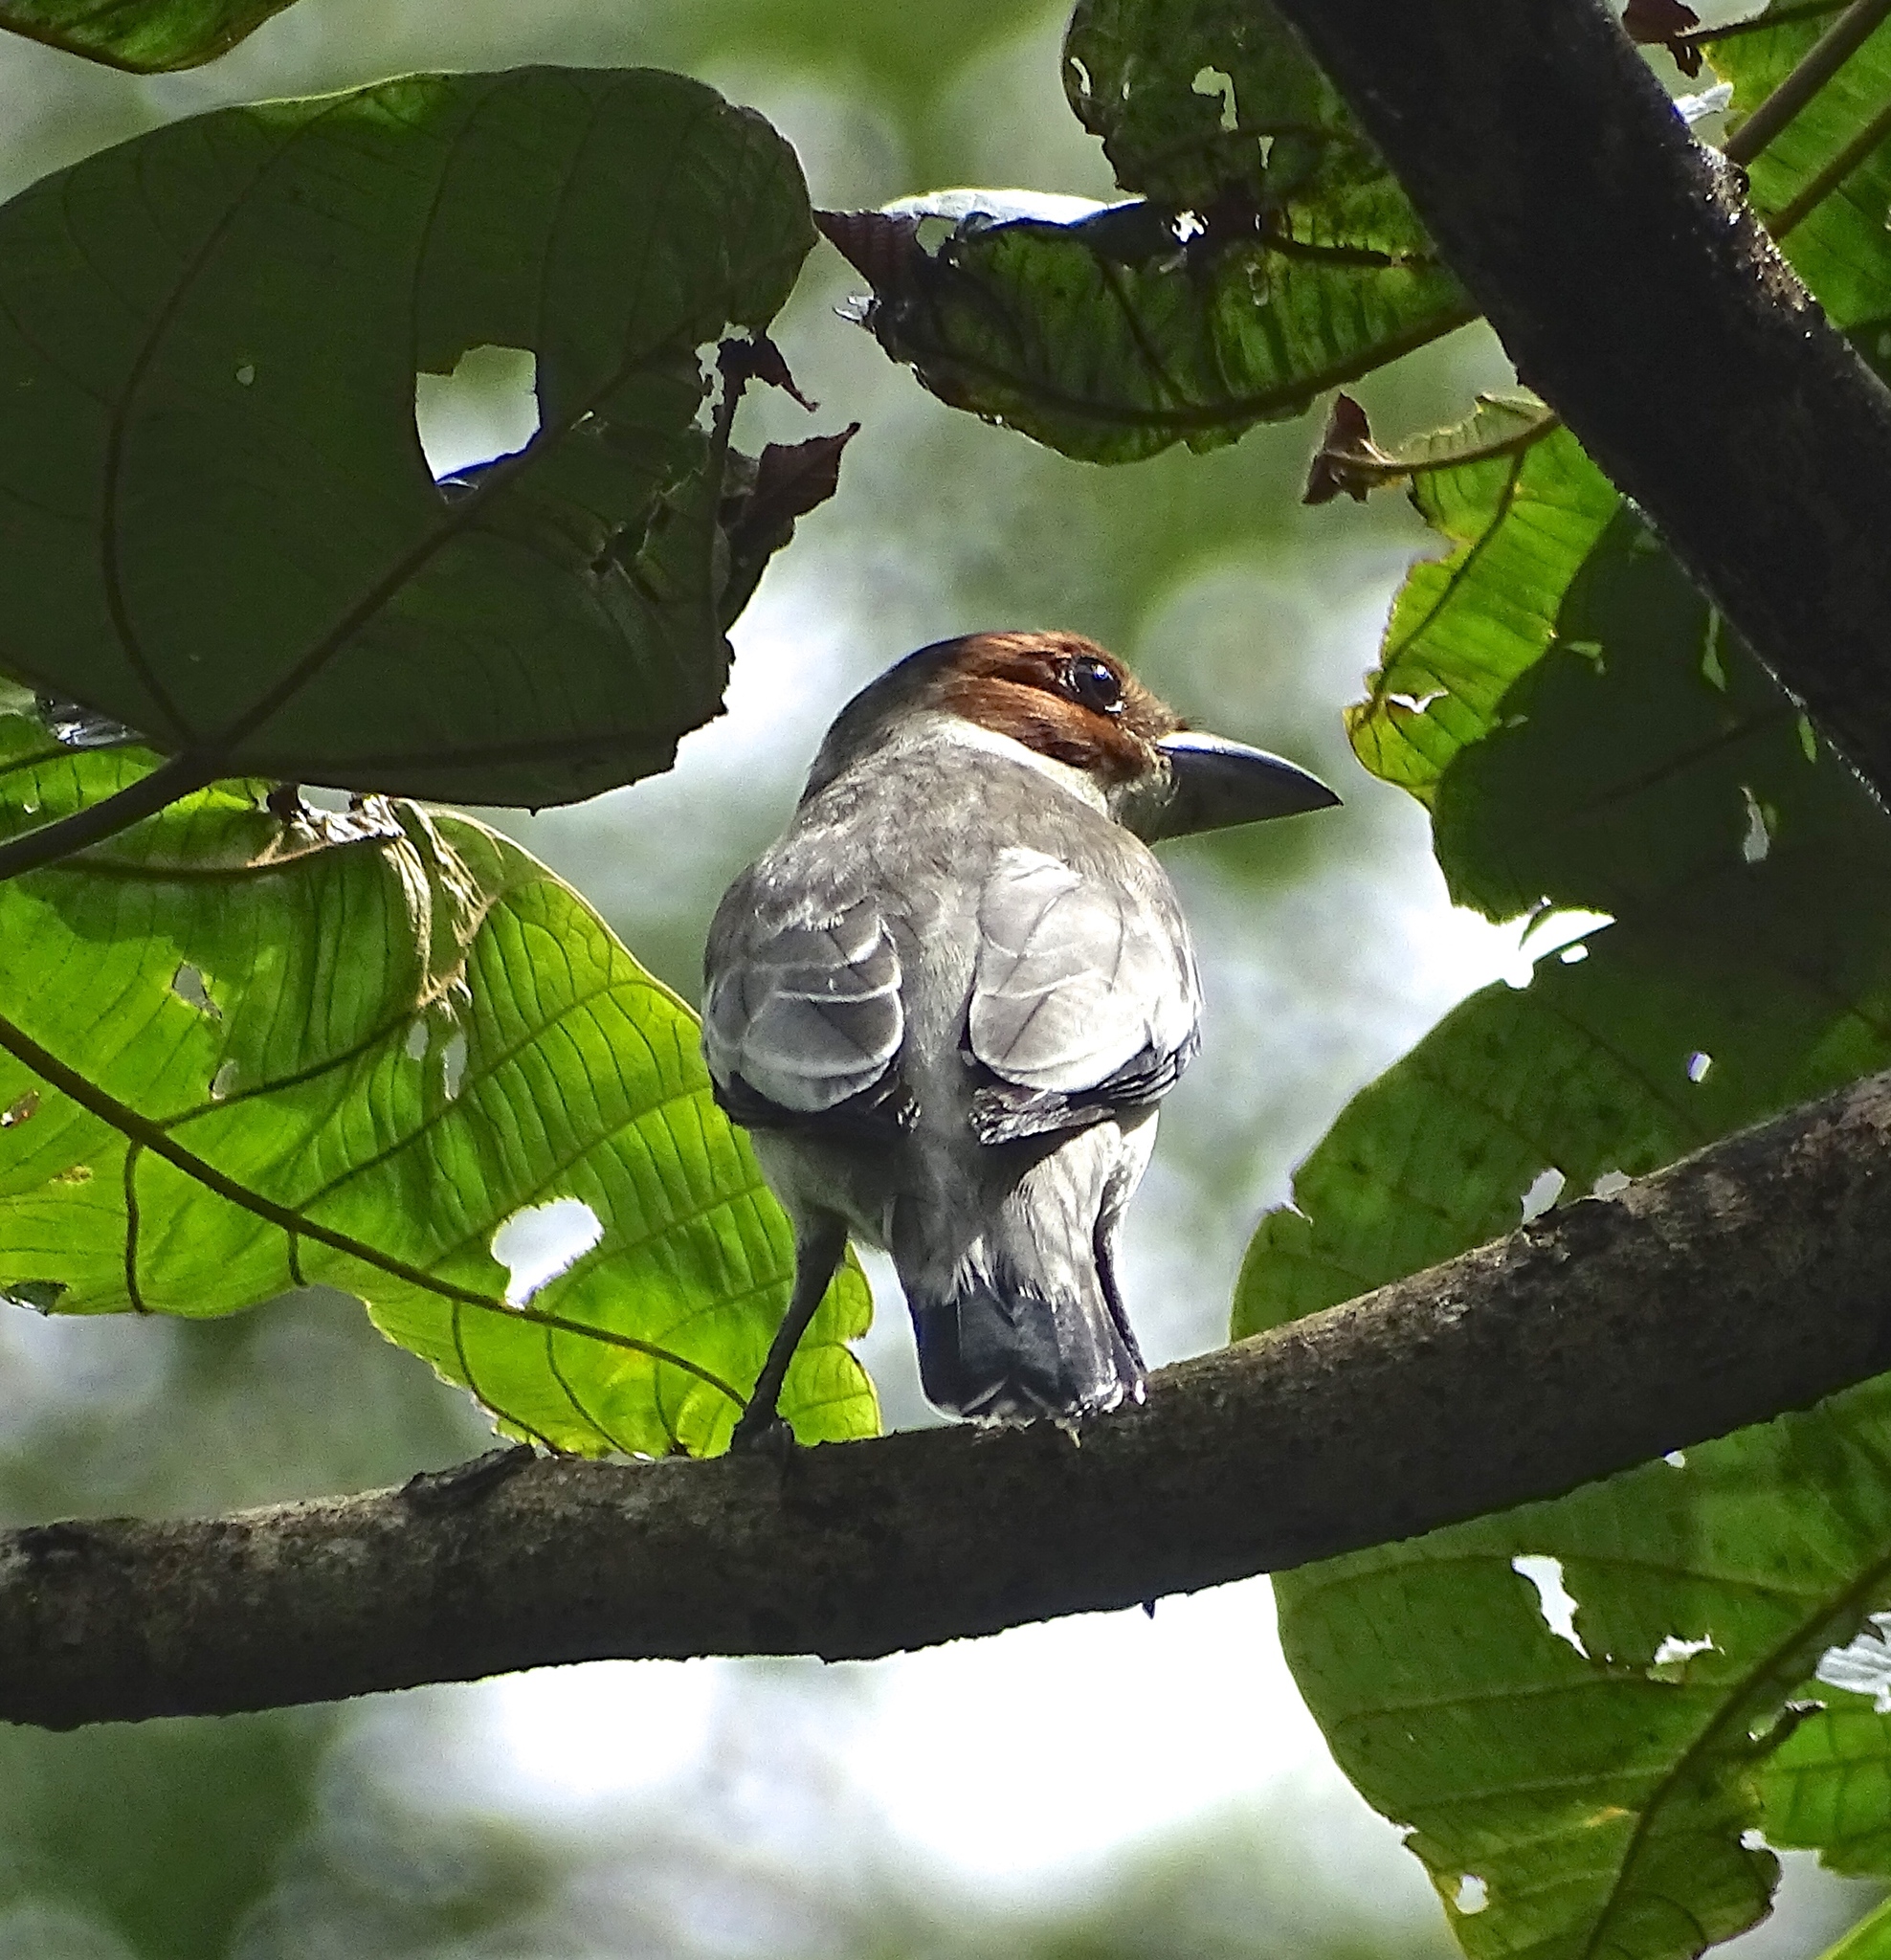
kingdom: Animalia
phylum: Chordata
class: Aves
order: Passeriformes
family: Cotingidae
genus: Tityra
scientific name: Tityra inquisitor
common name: Black-crowned tityra
